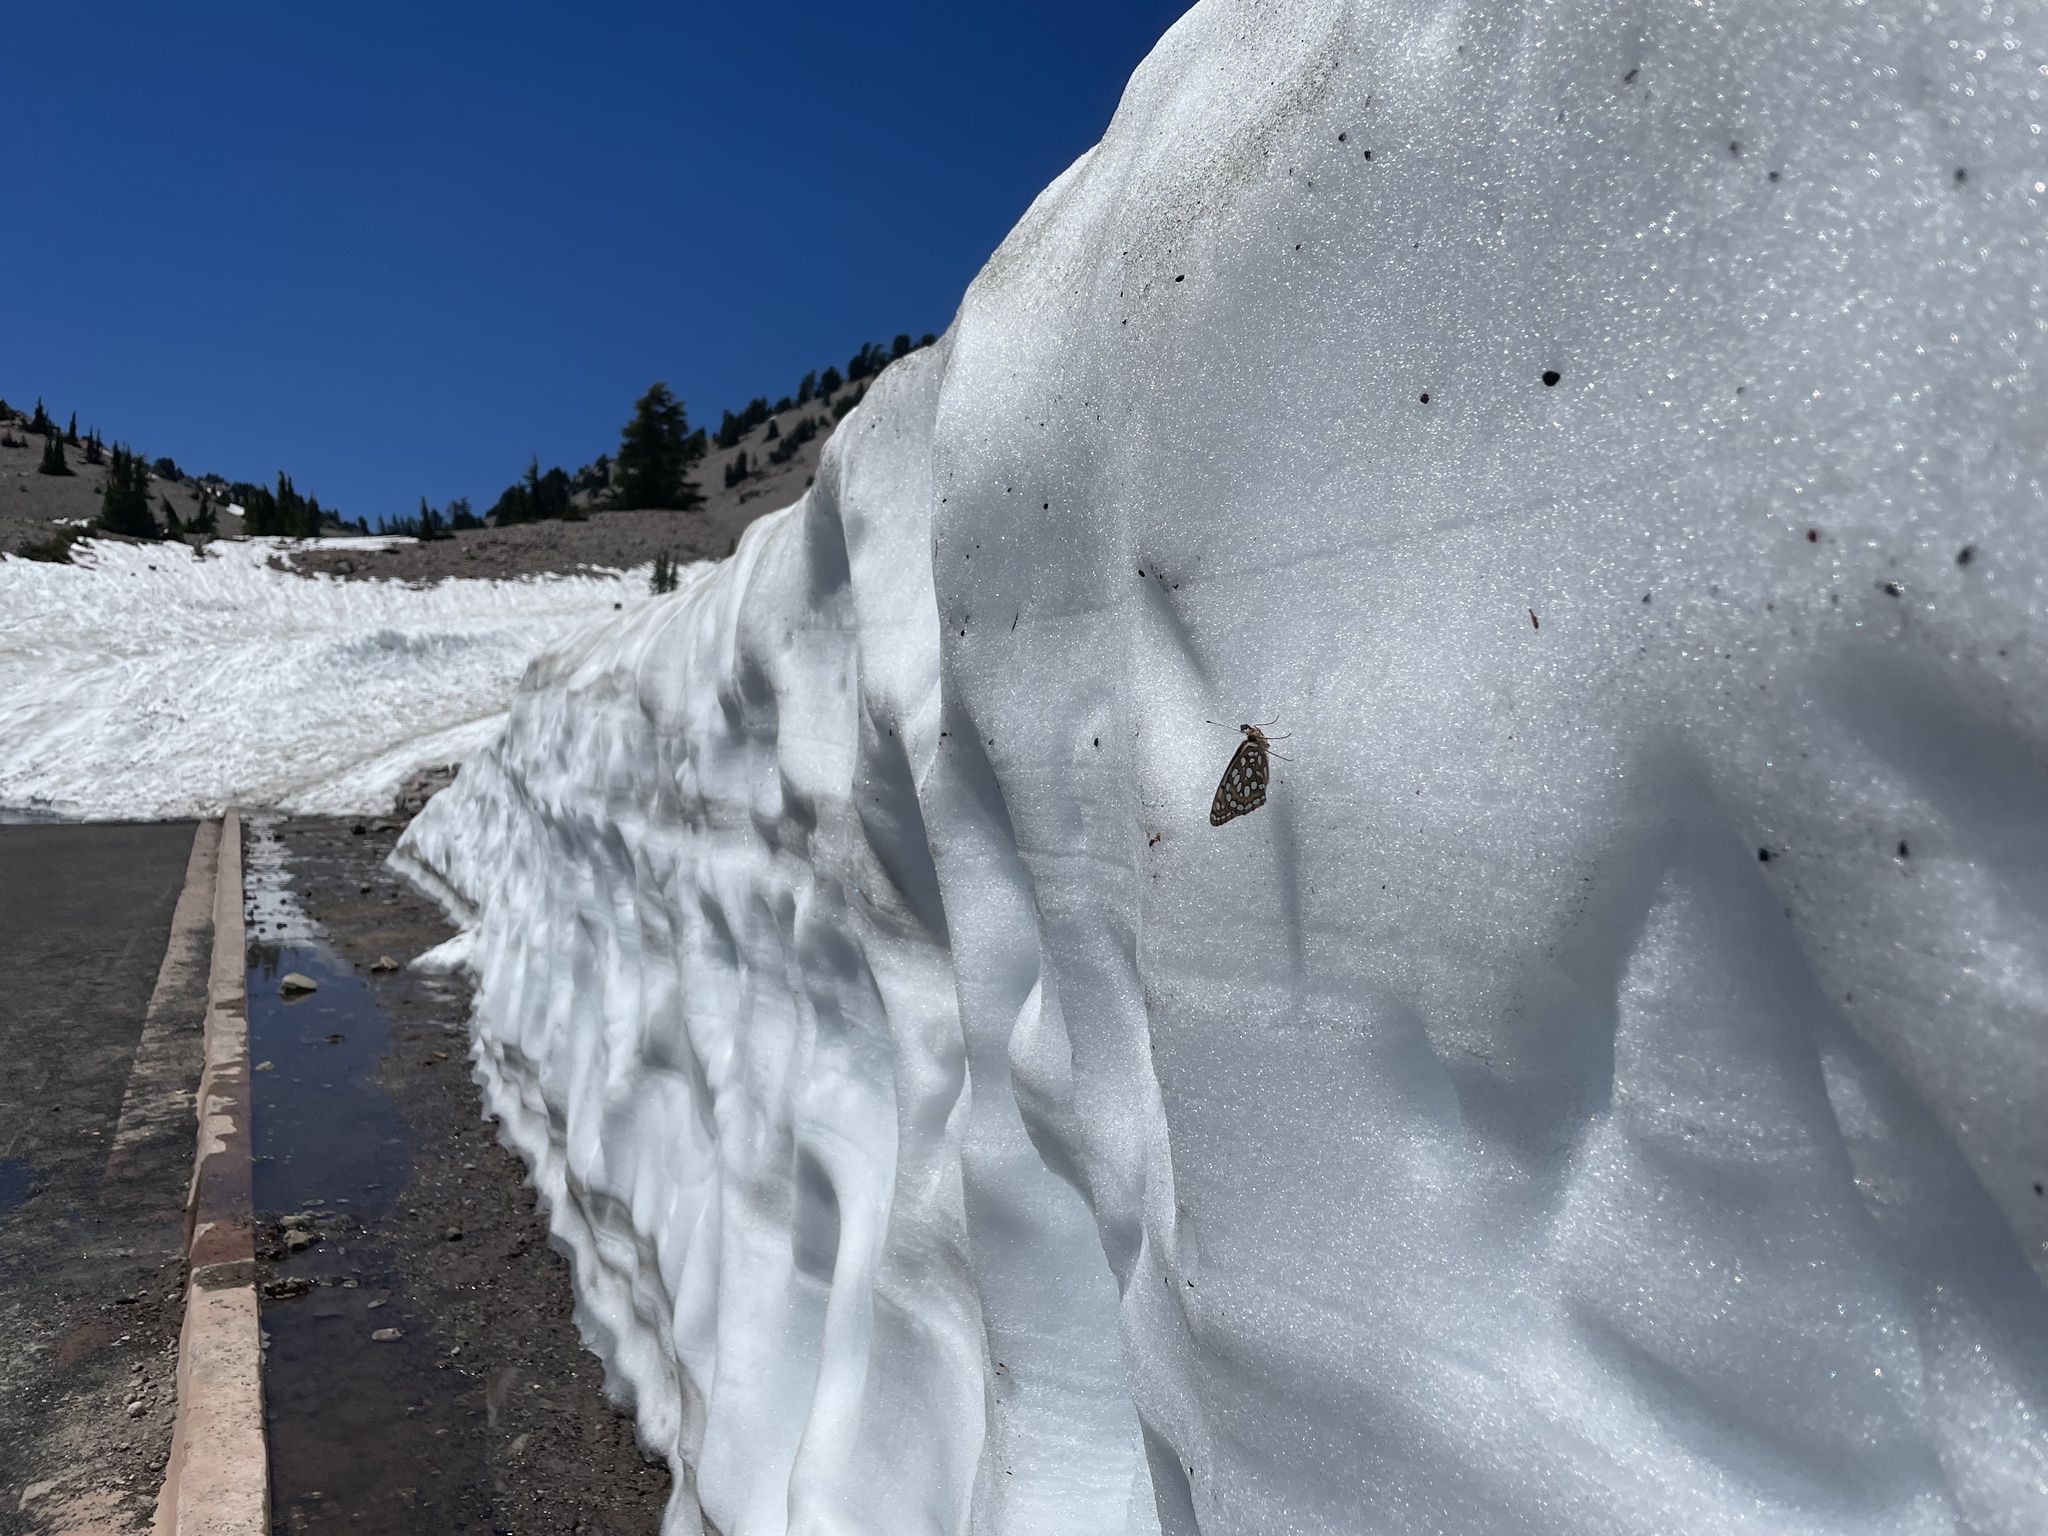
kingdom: Animalia
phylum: Arthropoda
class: Insecta
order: Lepidoptera
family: Nymphalidae
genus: Argynnis
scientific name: Argynnis coronis
